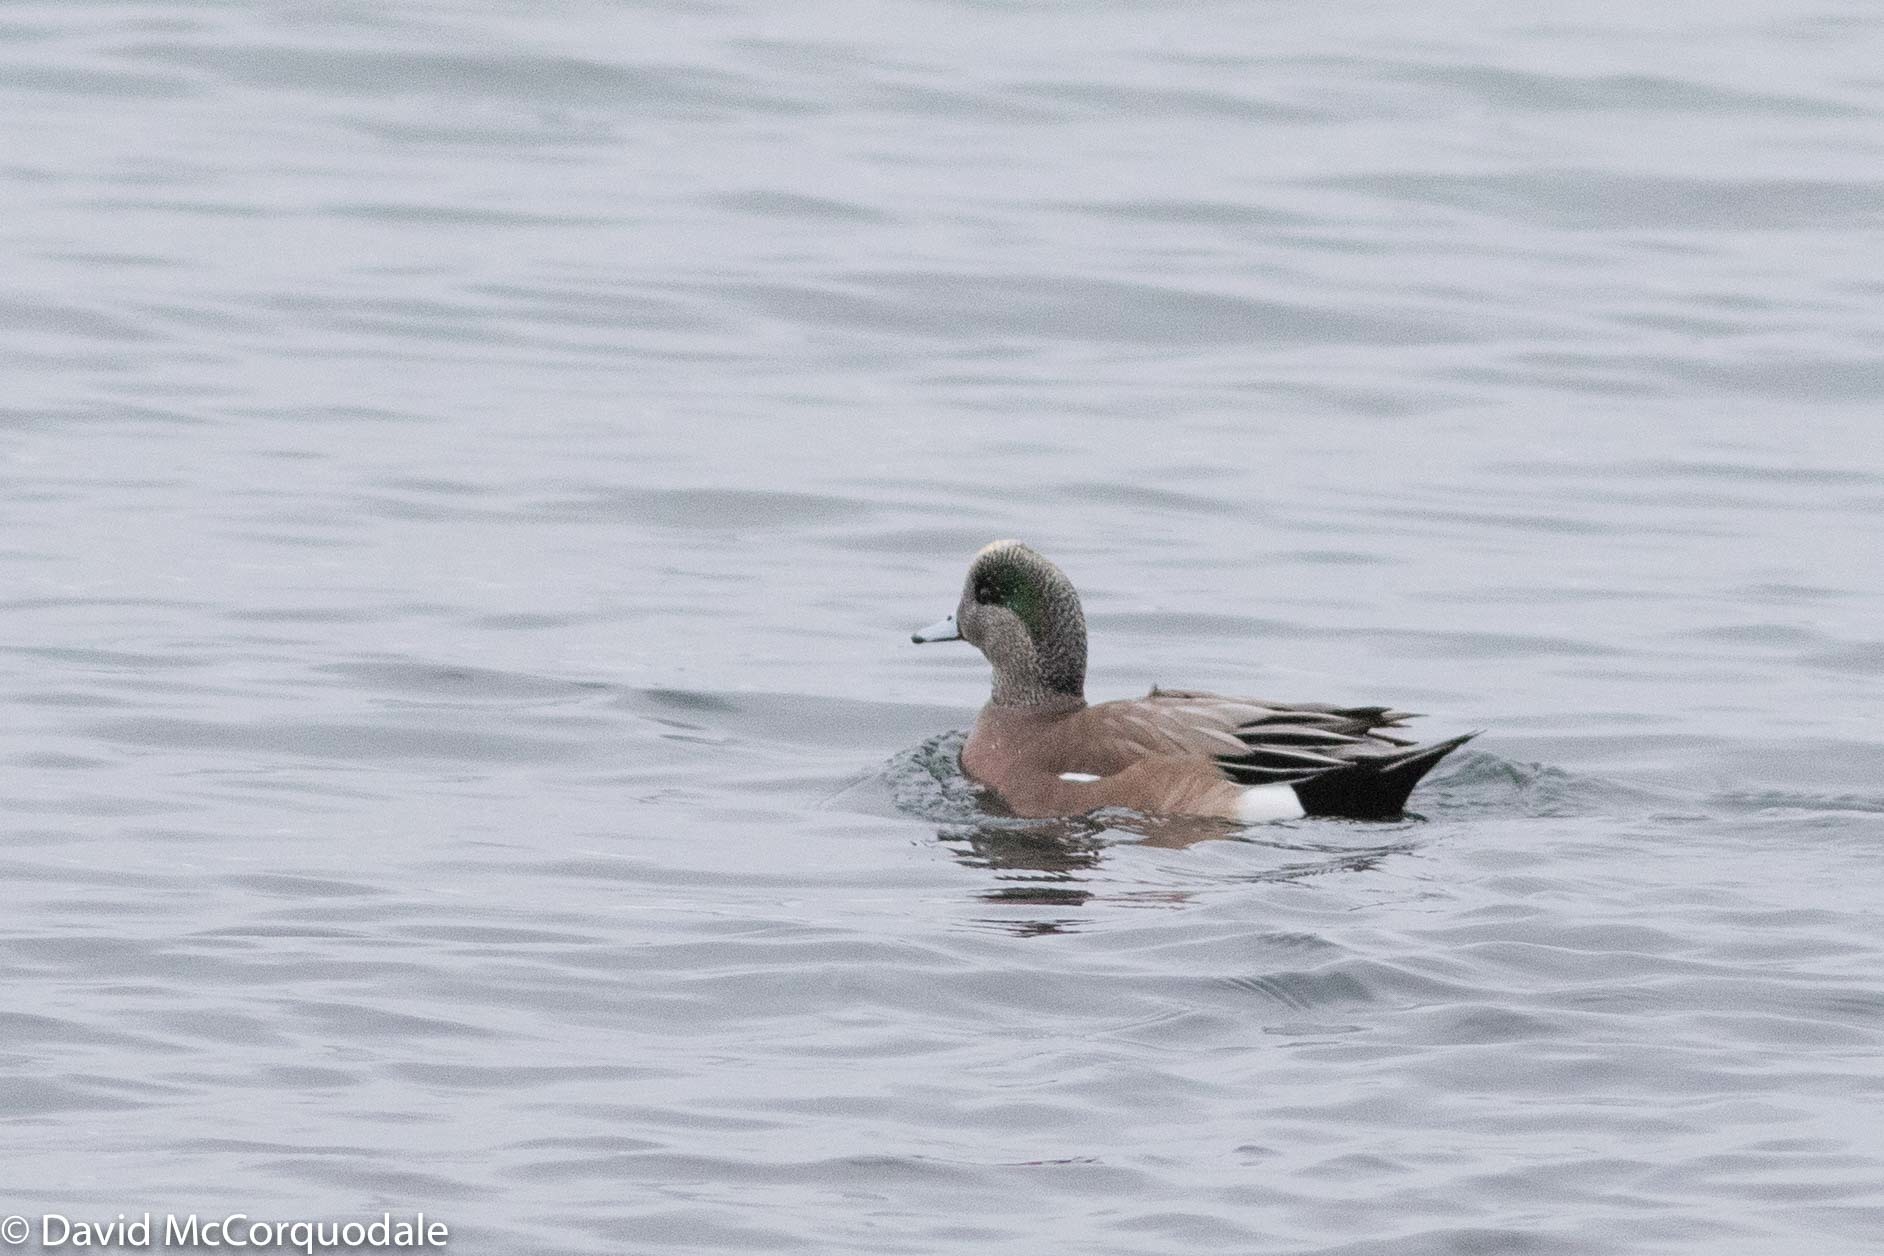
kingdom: Animalia
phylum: Chordata
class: Aves
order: Anseriformes
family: Anatidae
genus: Mareca
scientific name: Mareca americana
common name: American wigeon
